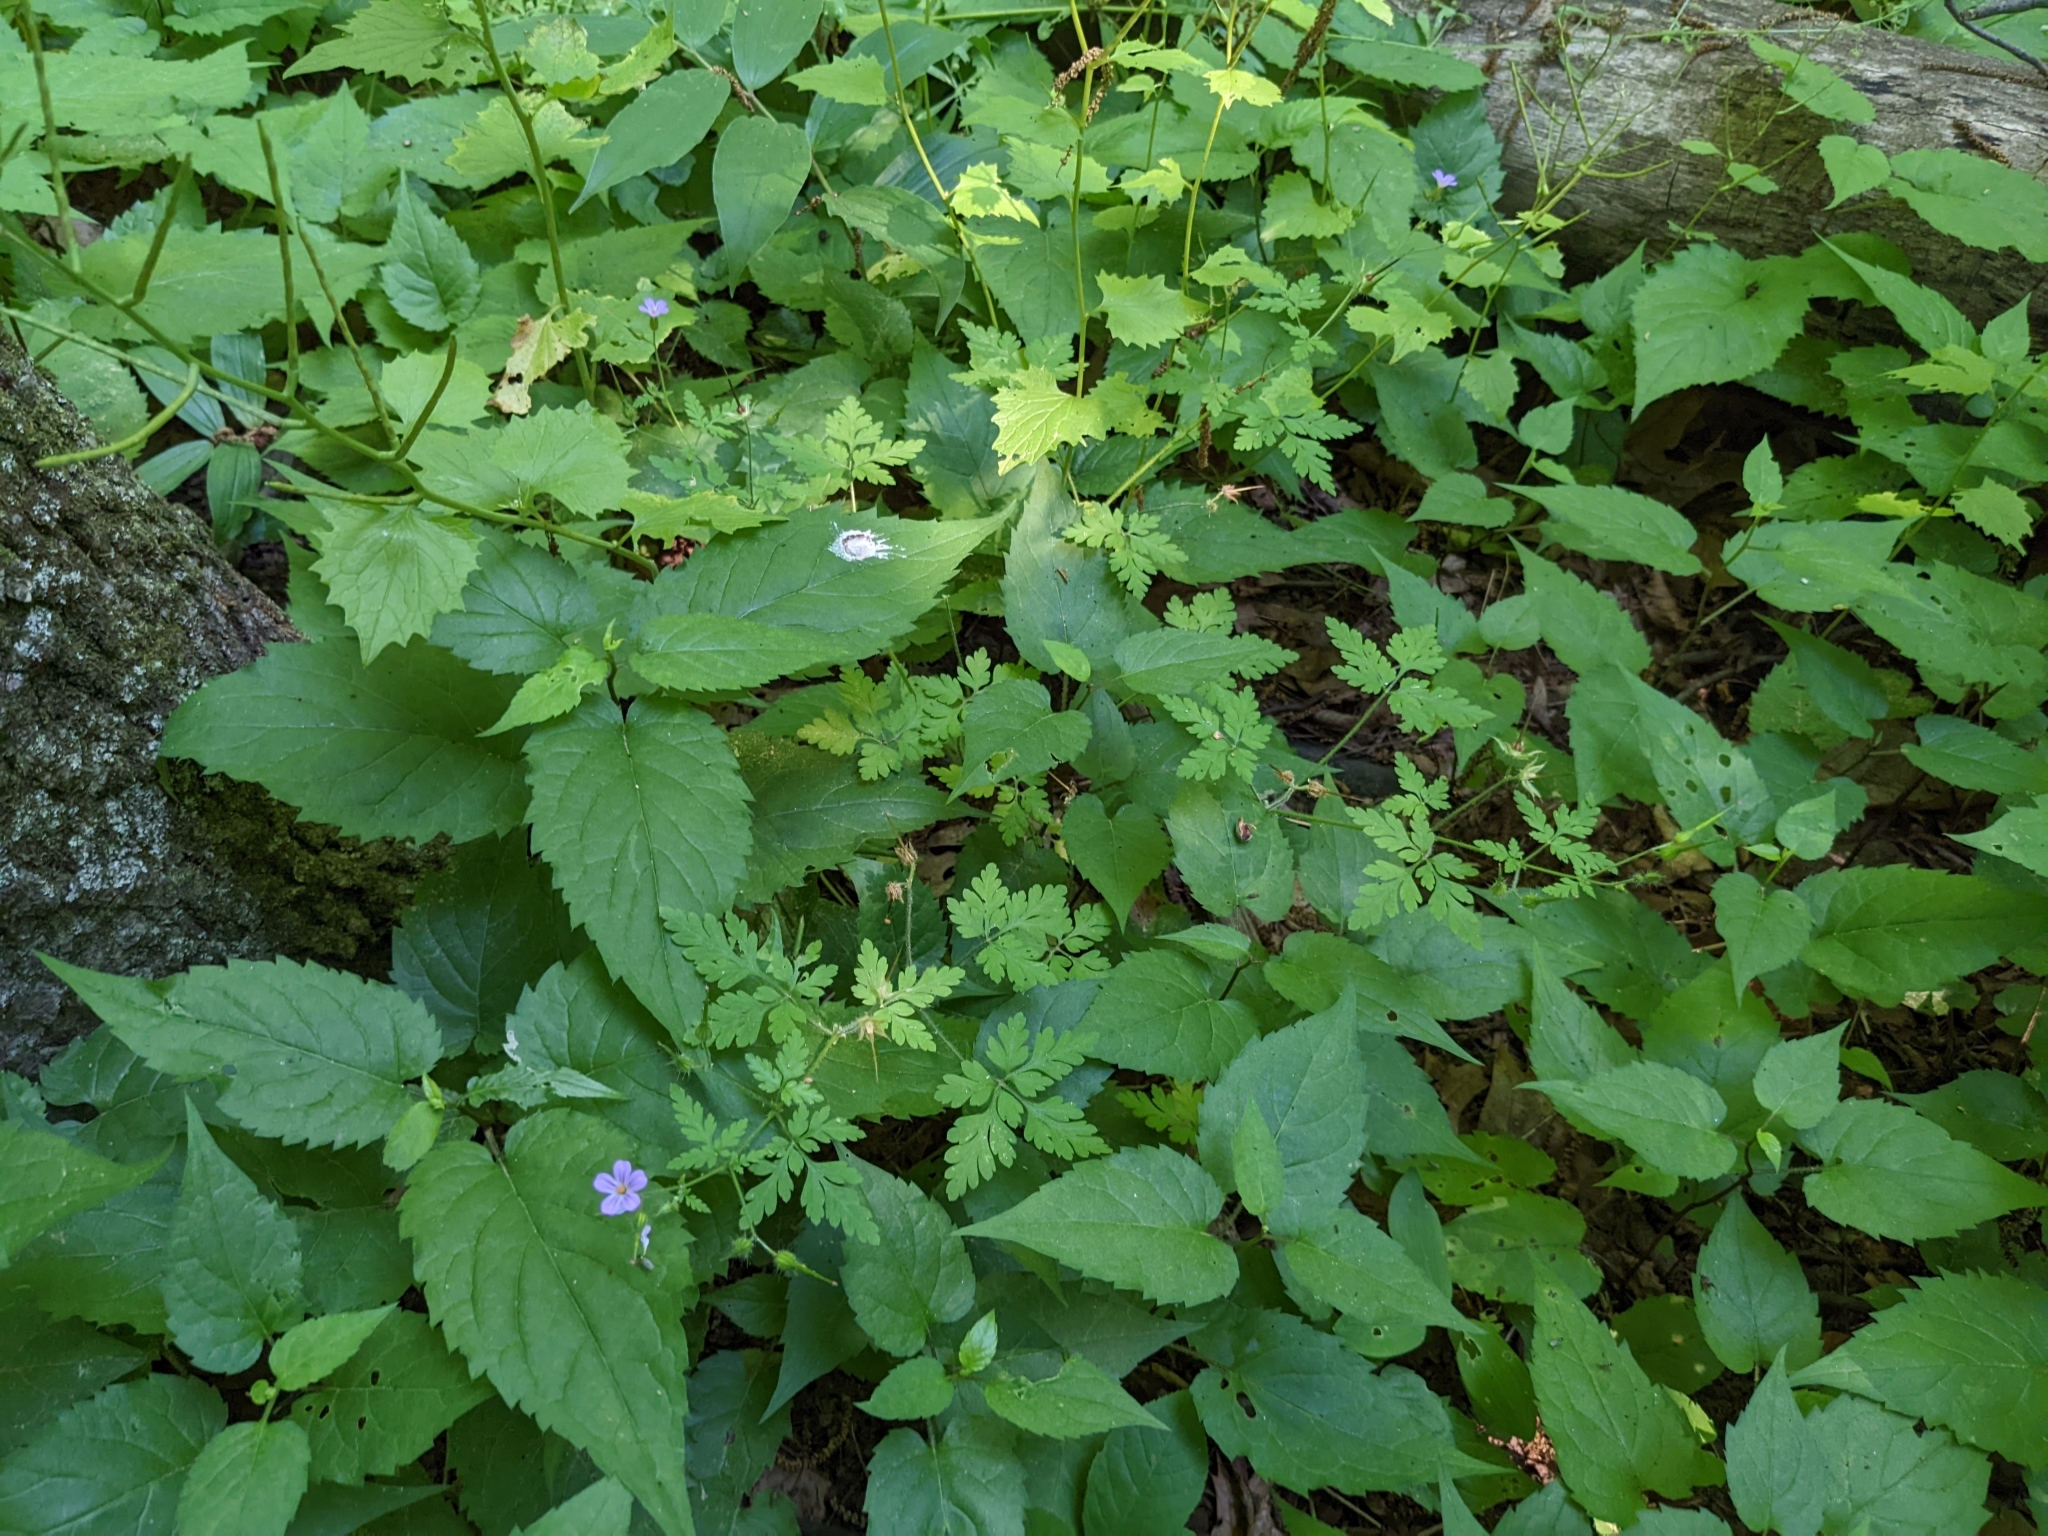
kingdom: Plantae
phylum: Tracheophyta
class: Magnoliopsida
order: Geraniales
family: Geraniaceae
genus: Geranium
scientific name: Geranium robertianum
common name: Herb-robert
